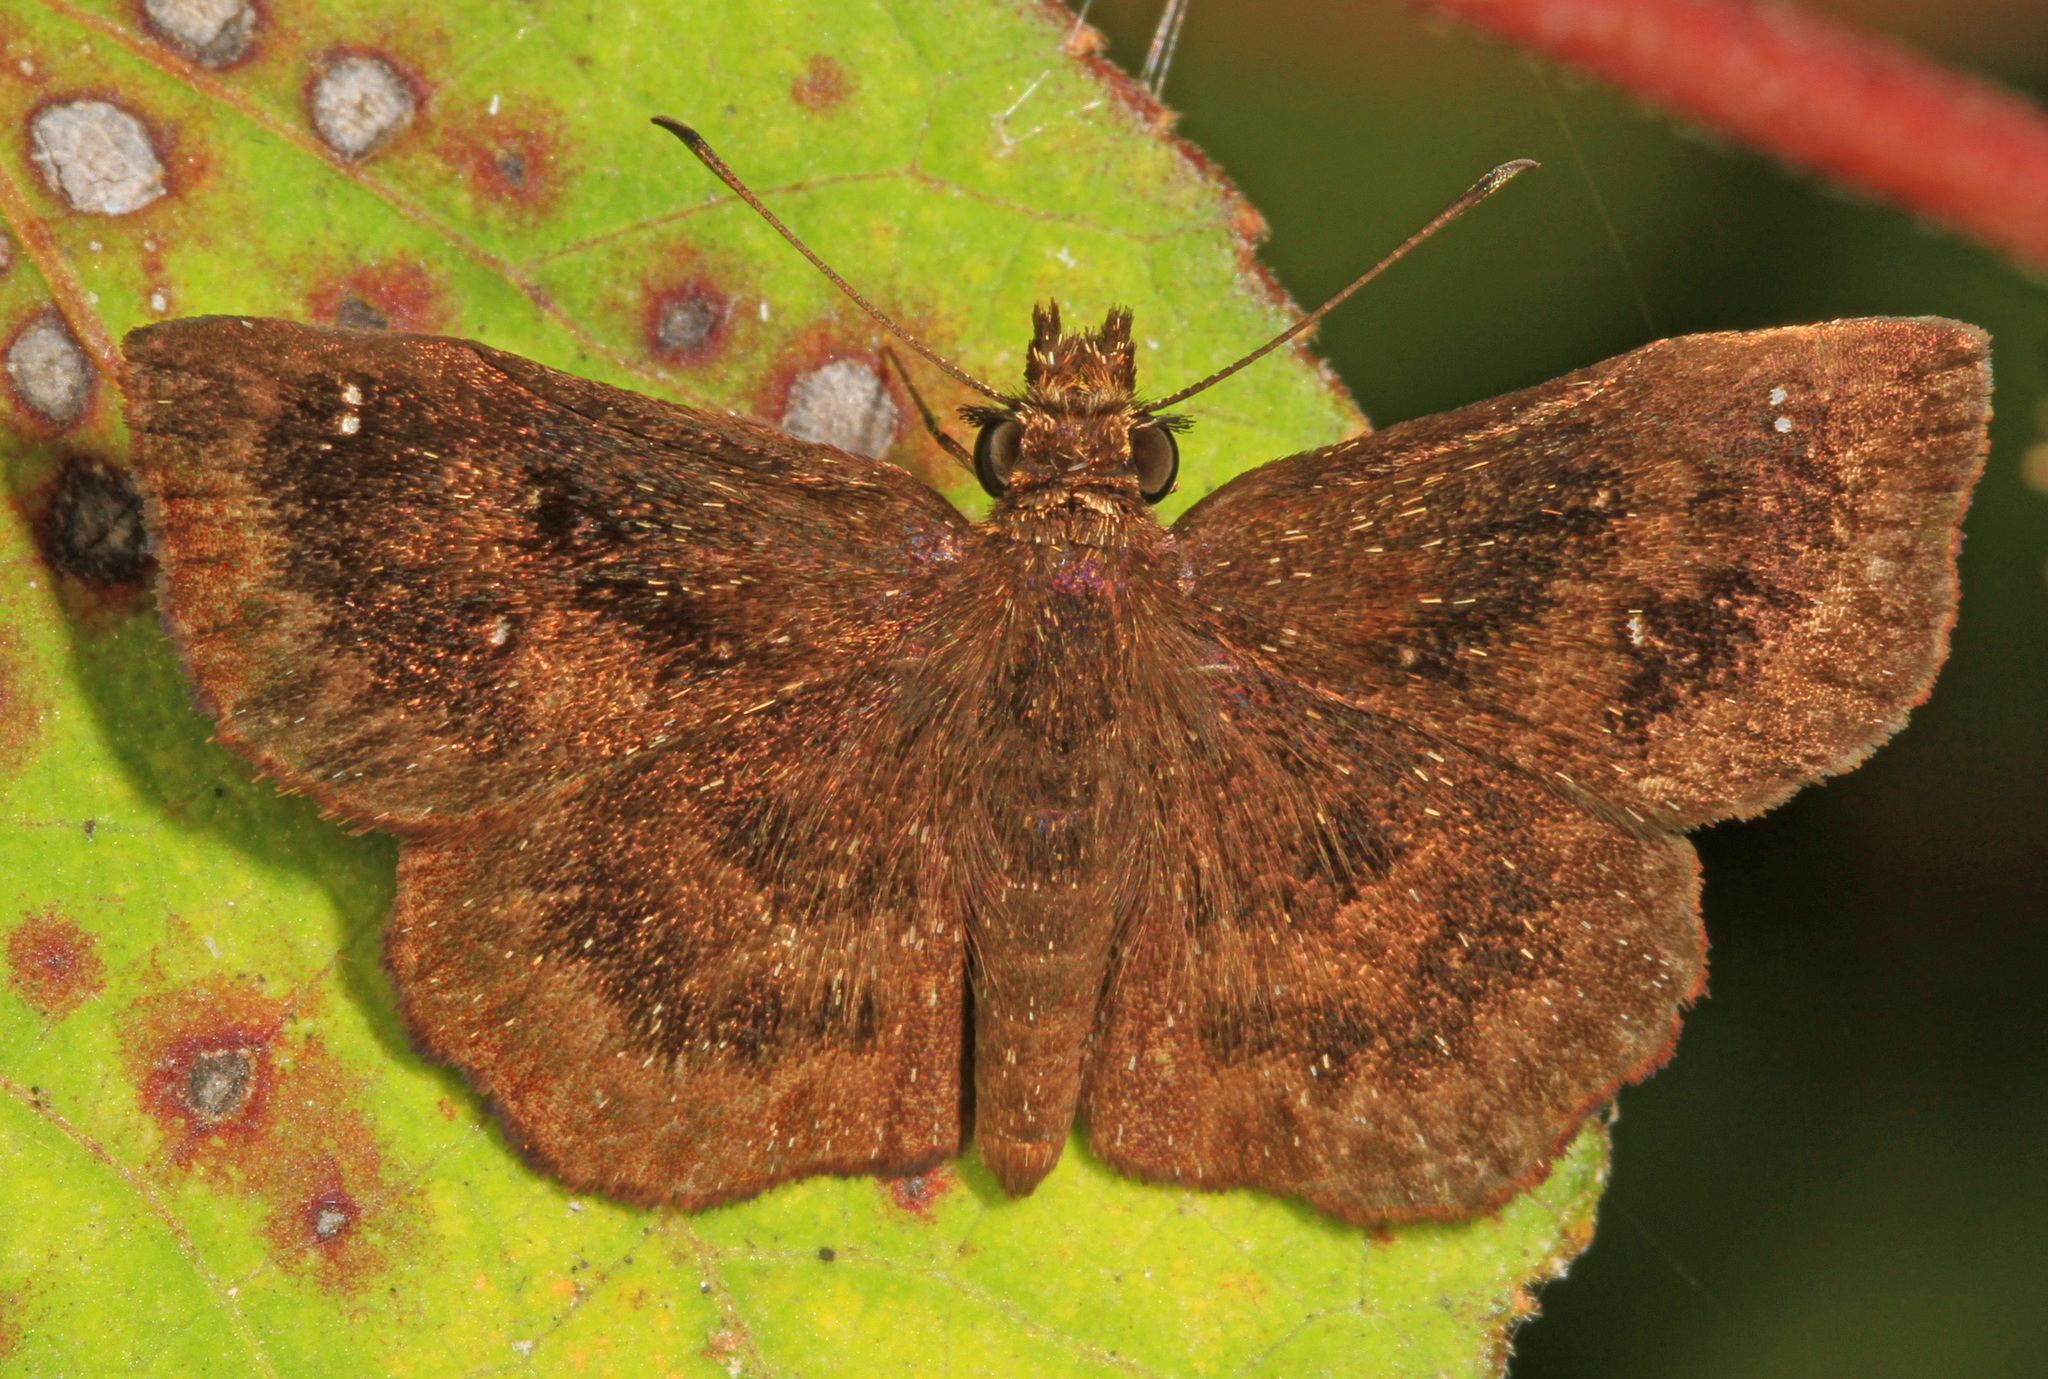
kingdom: Animalia
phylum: Arthropoda
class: Insecta
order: Lepidoptera
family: Hesperiidae
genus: Staphylus
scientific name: Staphylus mazans
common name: Mazans scallopwing
